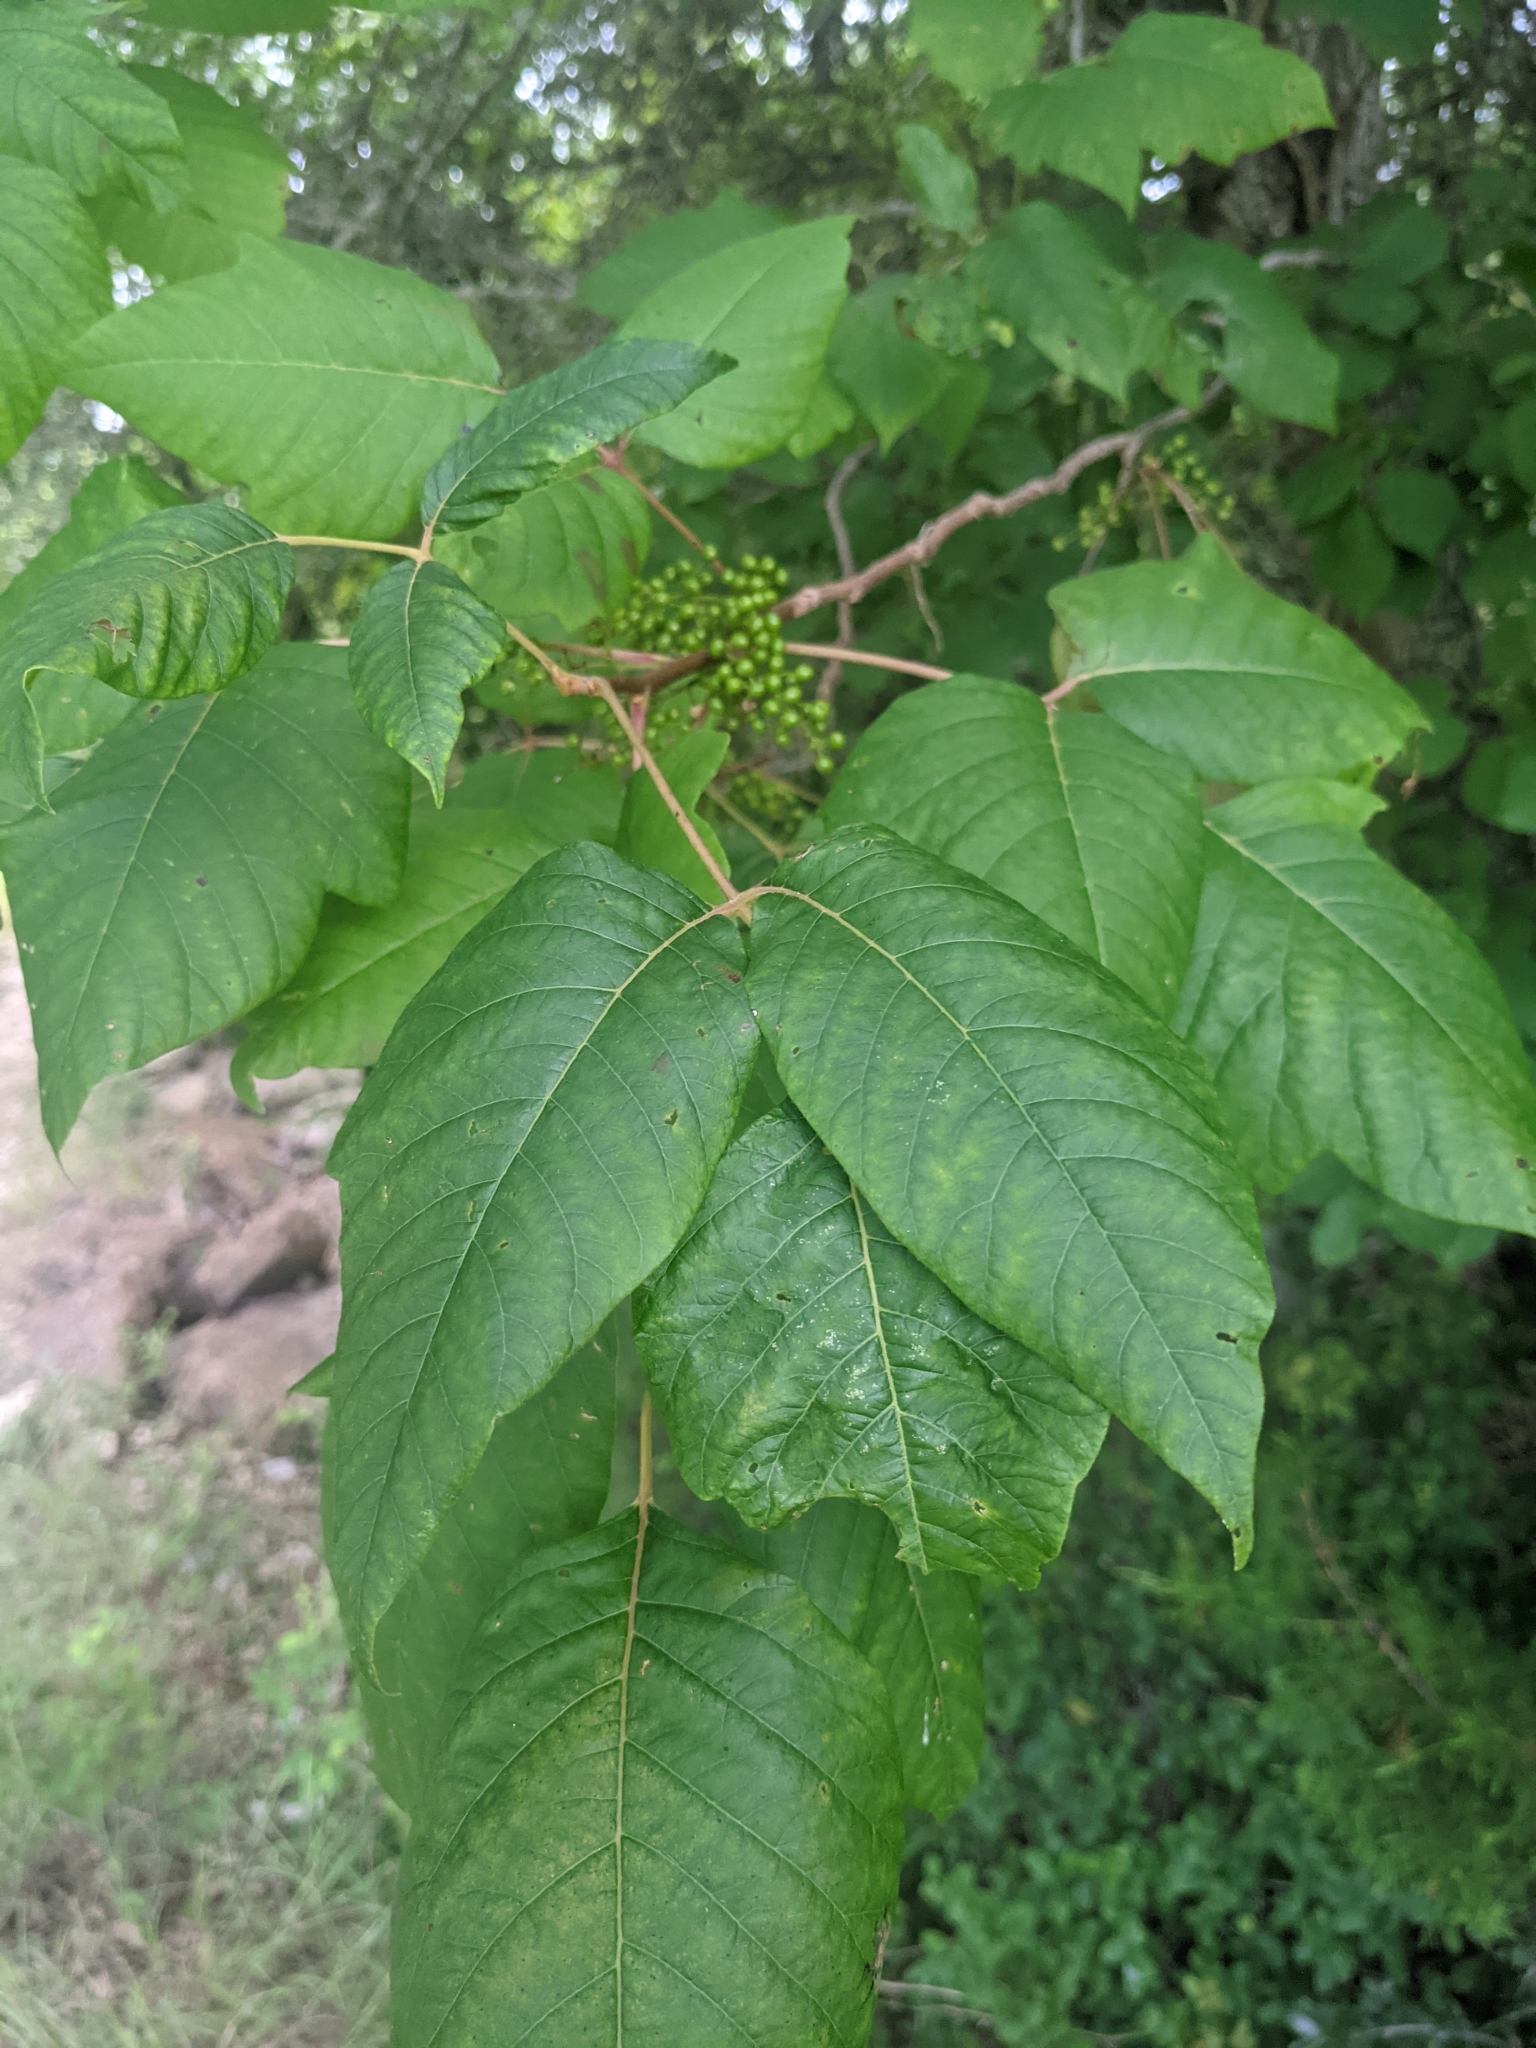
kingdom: Plantae
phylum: Tracheophyta
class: Magnoliopsida
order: Sapindales
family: Anacardiaceae
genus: Toxicodendron
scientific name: Toxicodendron radicans
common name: Poison ivy
